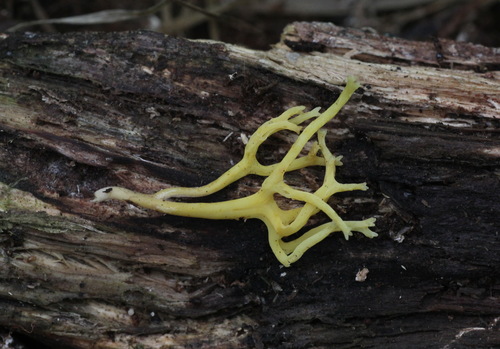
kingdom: Fungi
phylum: Basidiomycota
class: Agaricomycetes
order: Agaricales
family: Clavariaceae
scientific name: Clavariaceae
